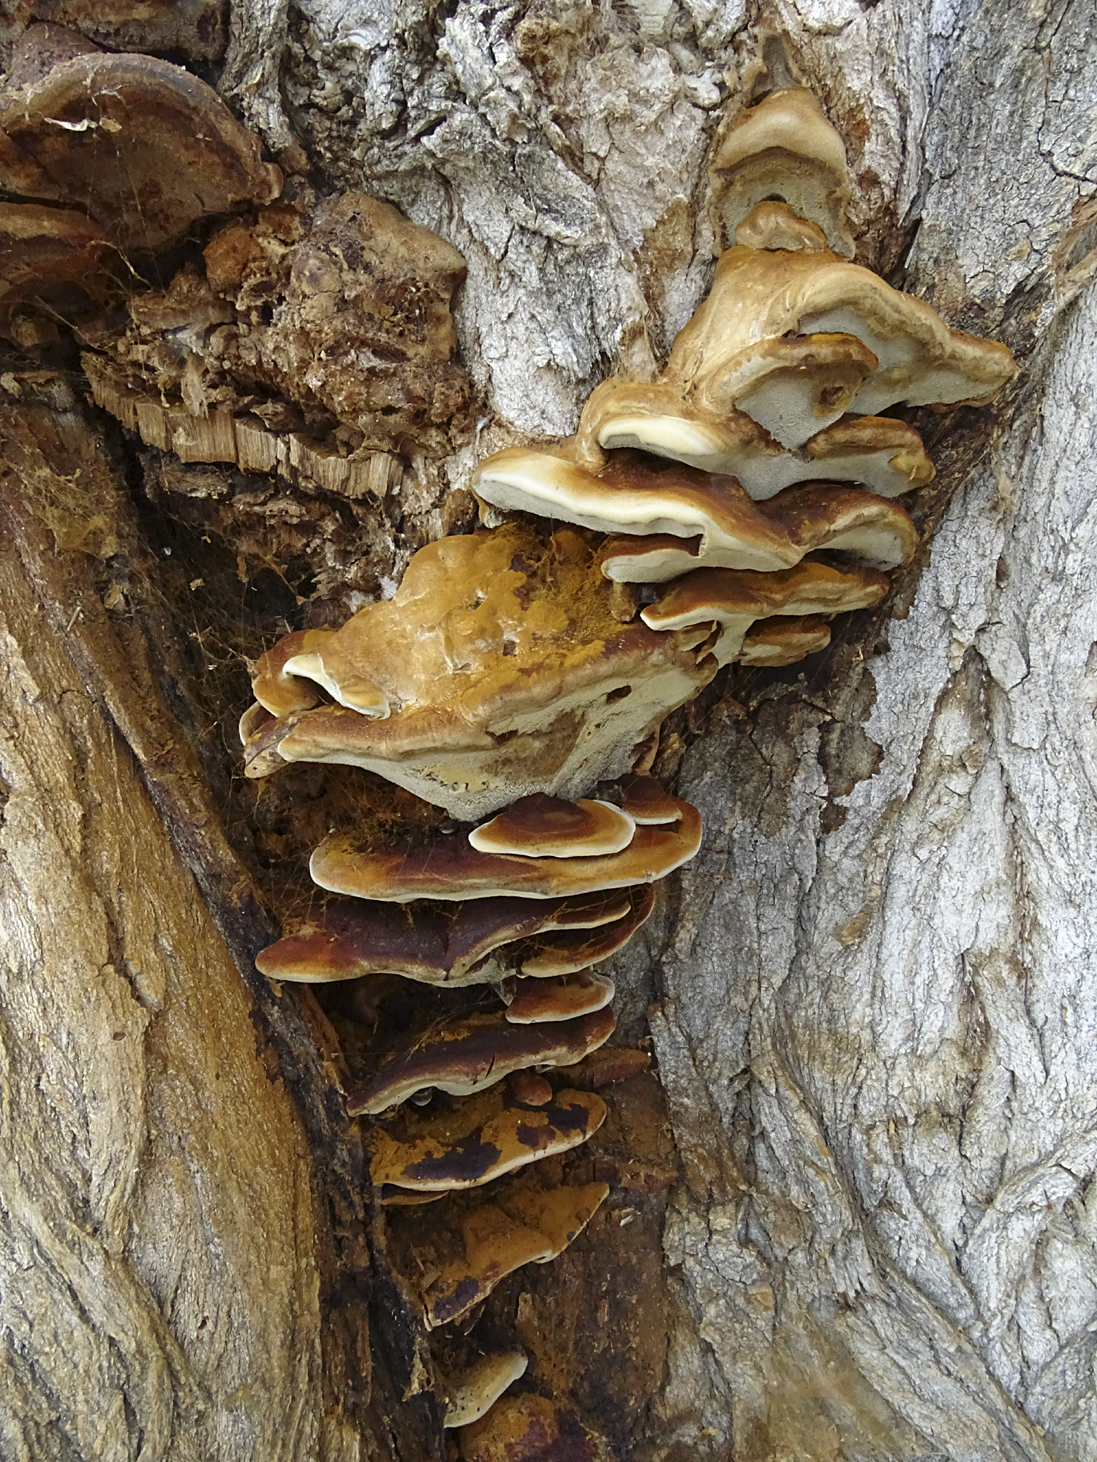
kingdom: Fungi
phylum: Basidiomycota
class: Agaricomycetes
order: Hymenochaetales
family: Hymenochaetaceae
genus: Inonotus
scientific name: Inonotus hispidus
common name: Shaggy bracket
